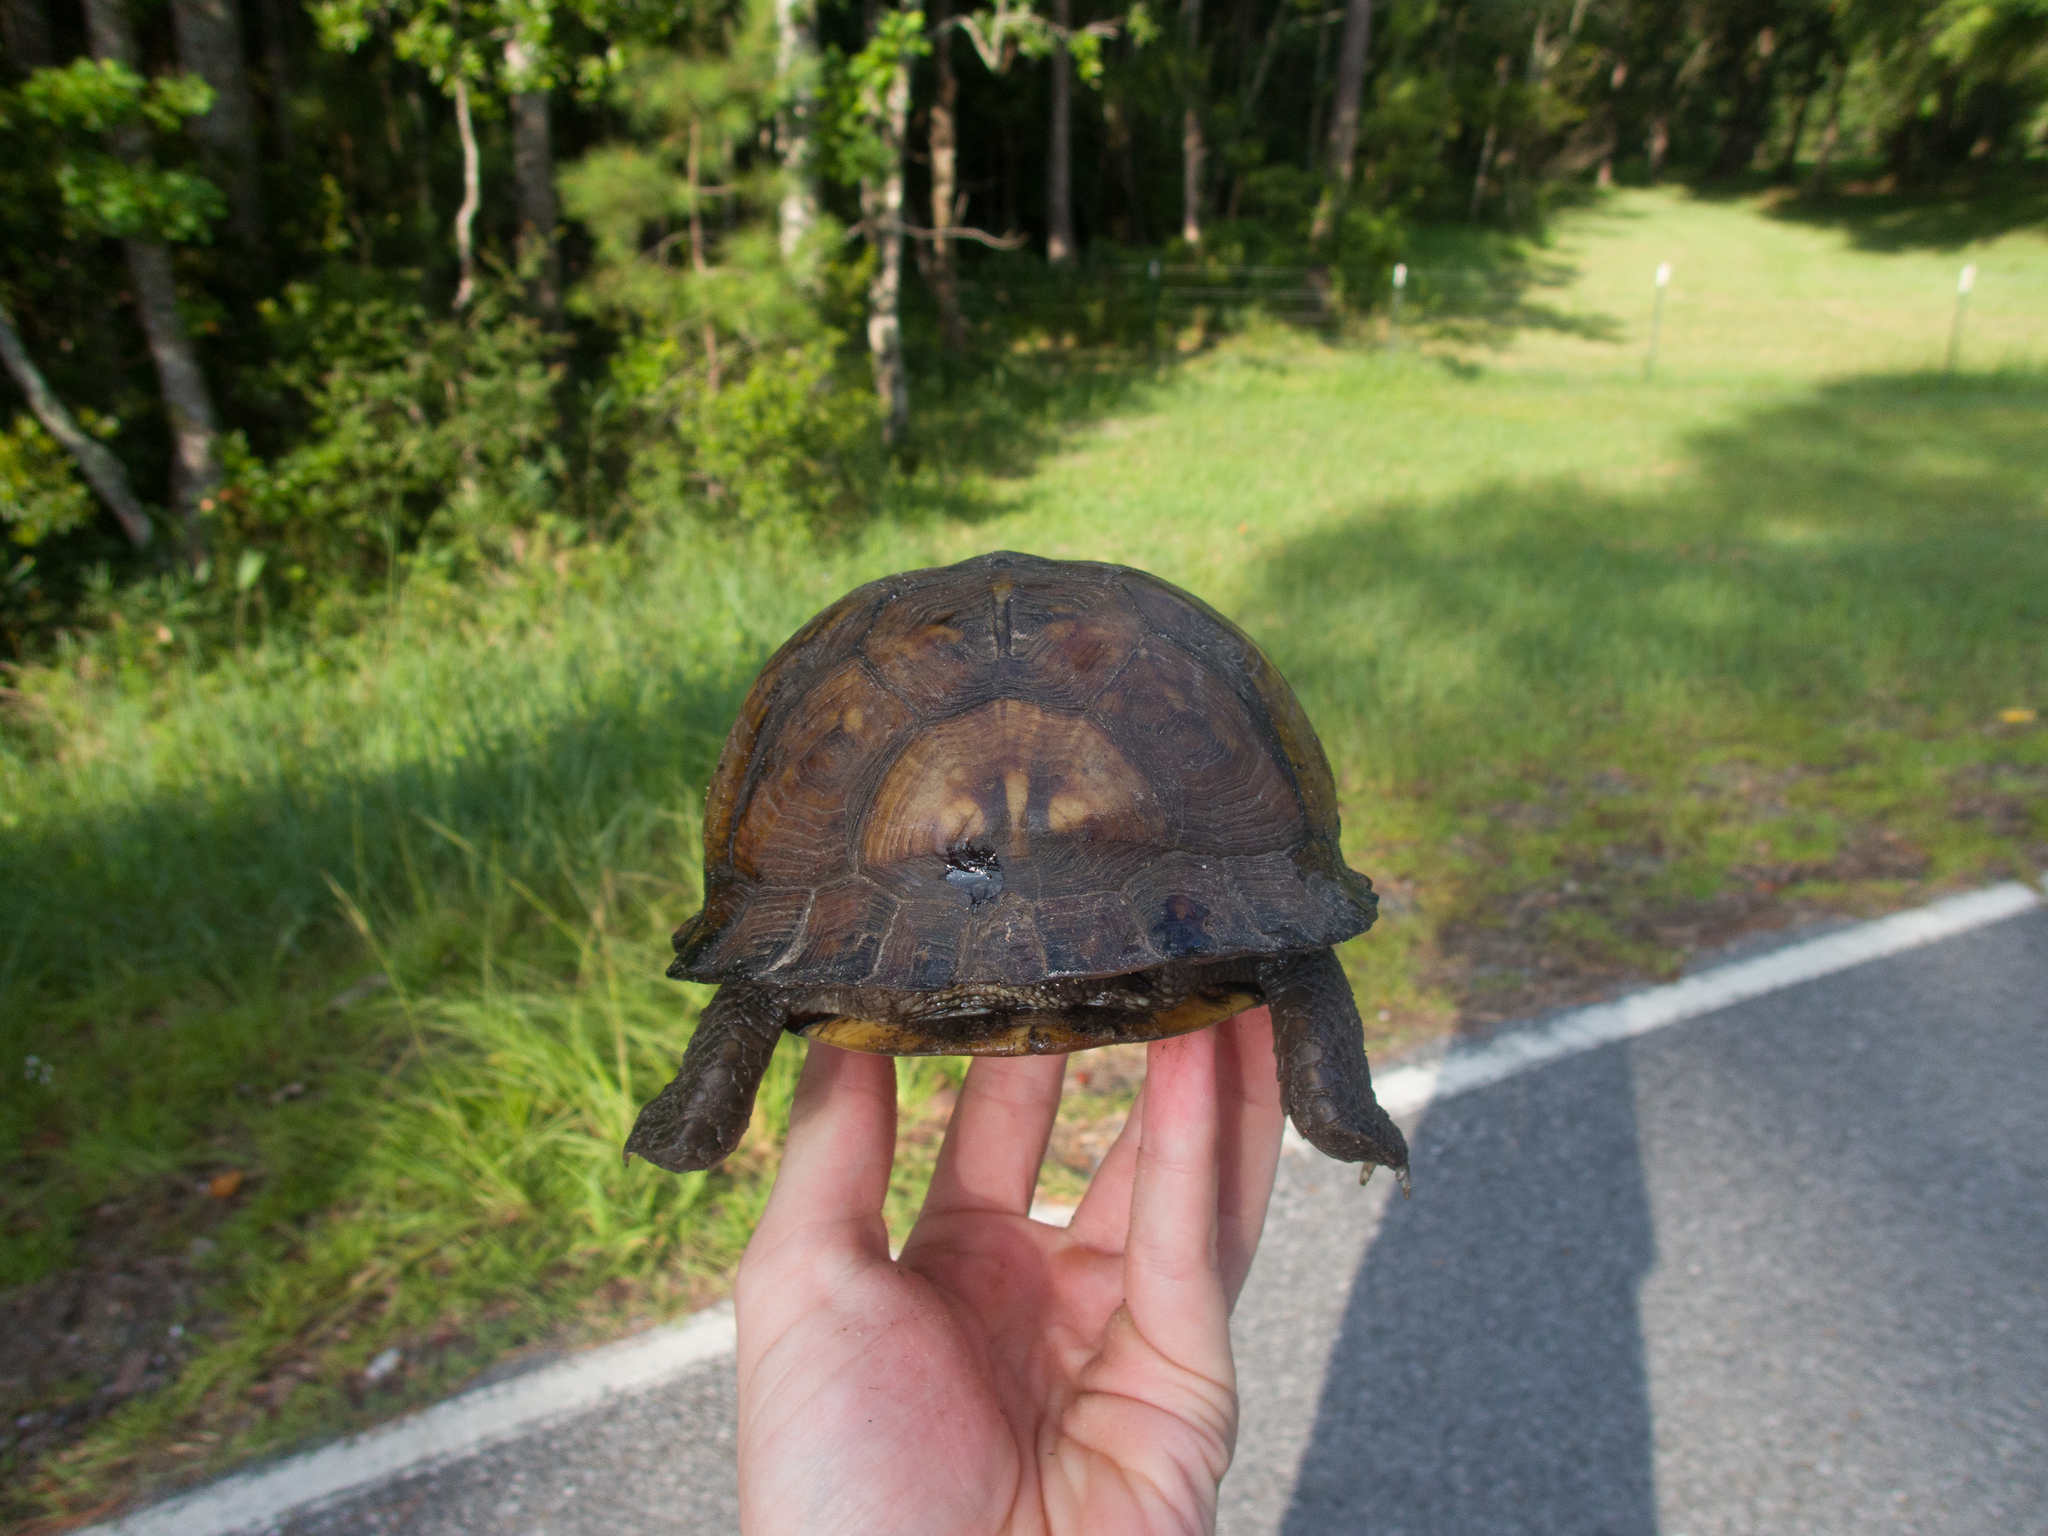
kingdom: Animalia
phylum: Chordata
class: Testudines
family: Emydidae
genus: Terrapene
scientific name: Terrapene carolina
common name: Common box turtle
